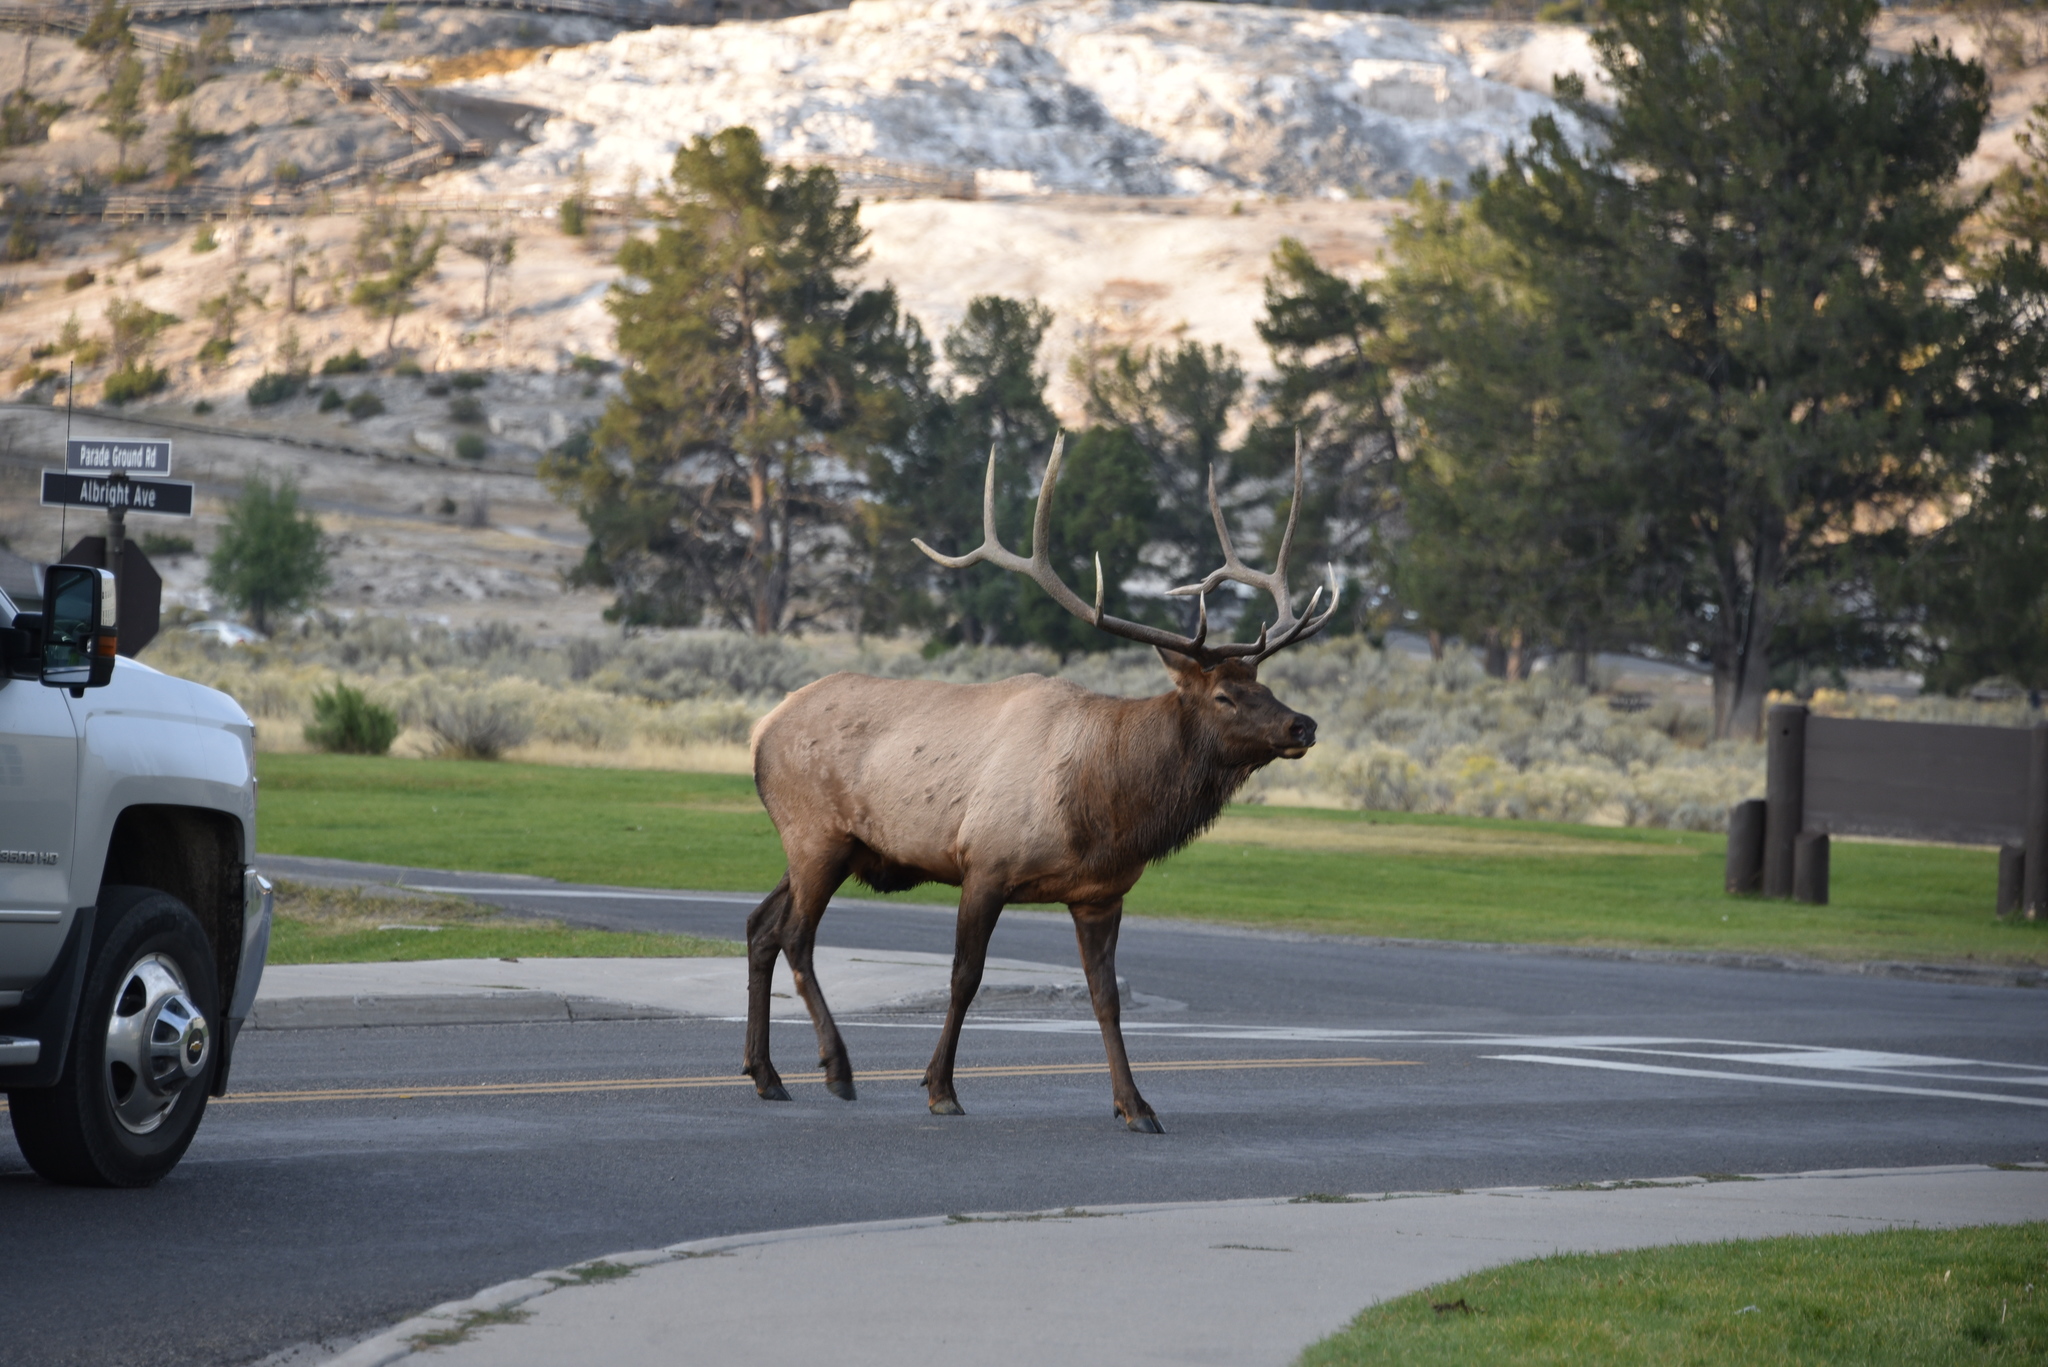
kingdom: Animalia
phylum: Chordata
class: Mammalia
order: Artiodactyla
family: Cervidae
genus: Cervus
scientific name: Cervus elaphus
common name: Red deer
